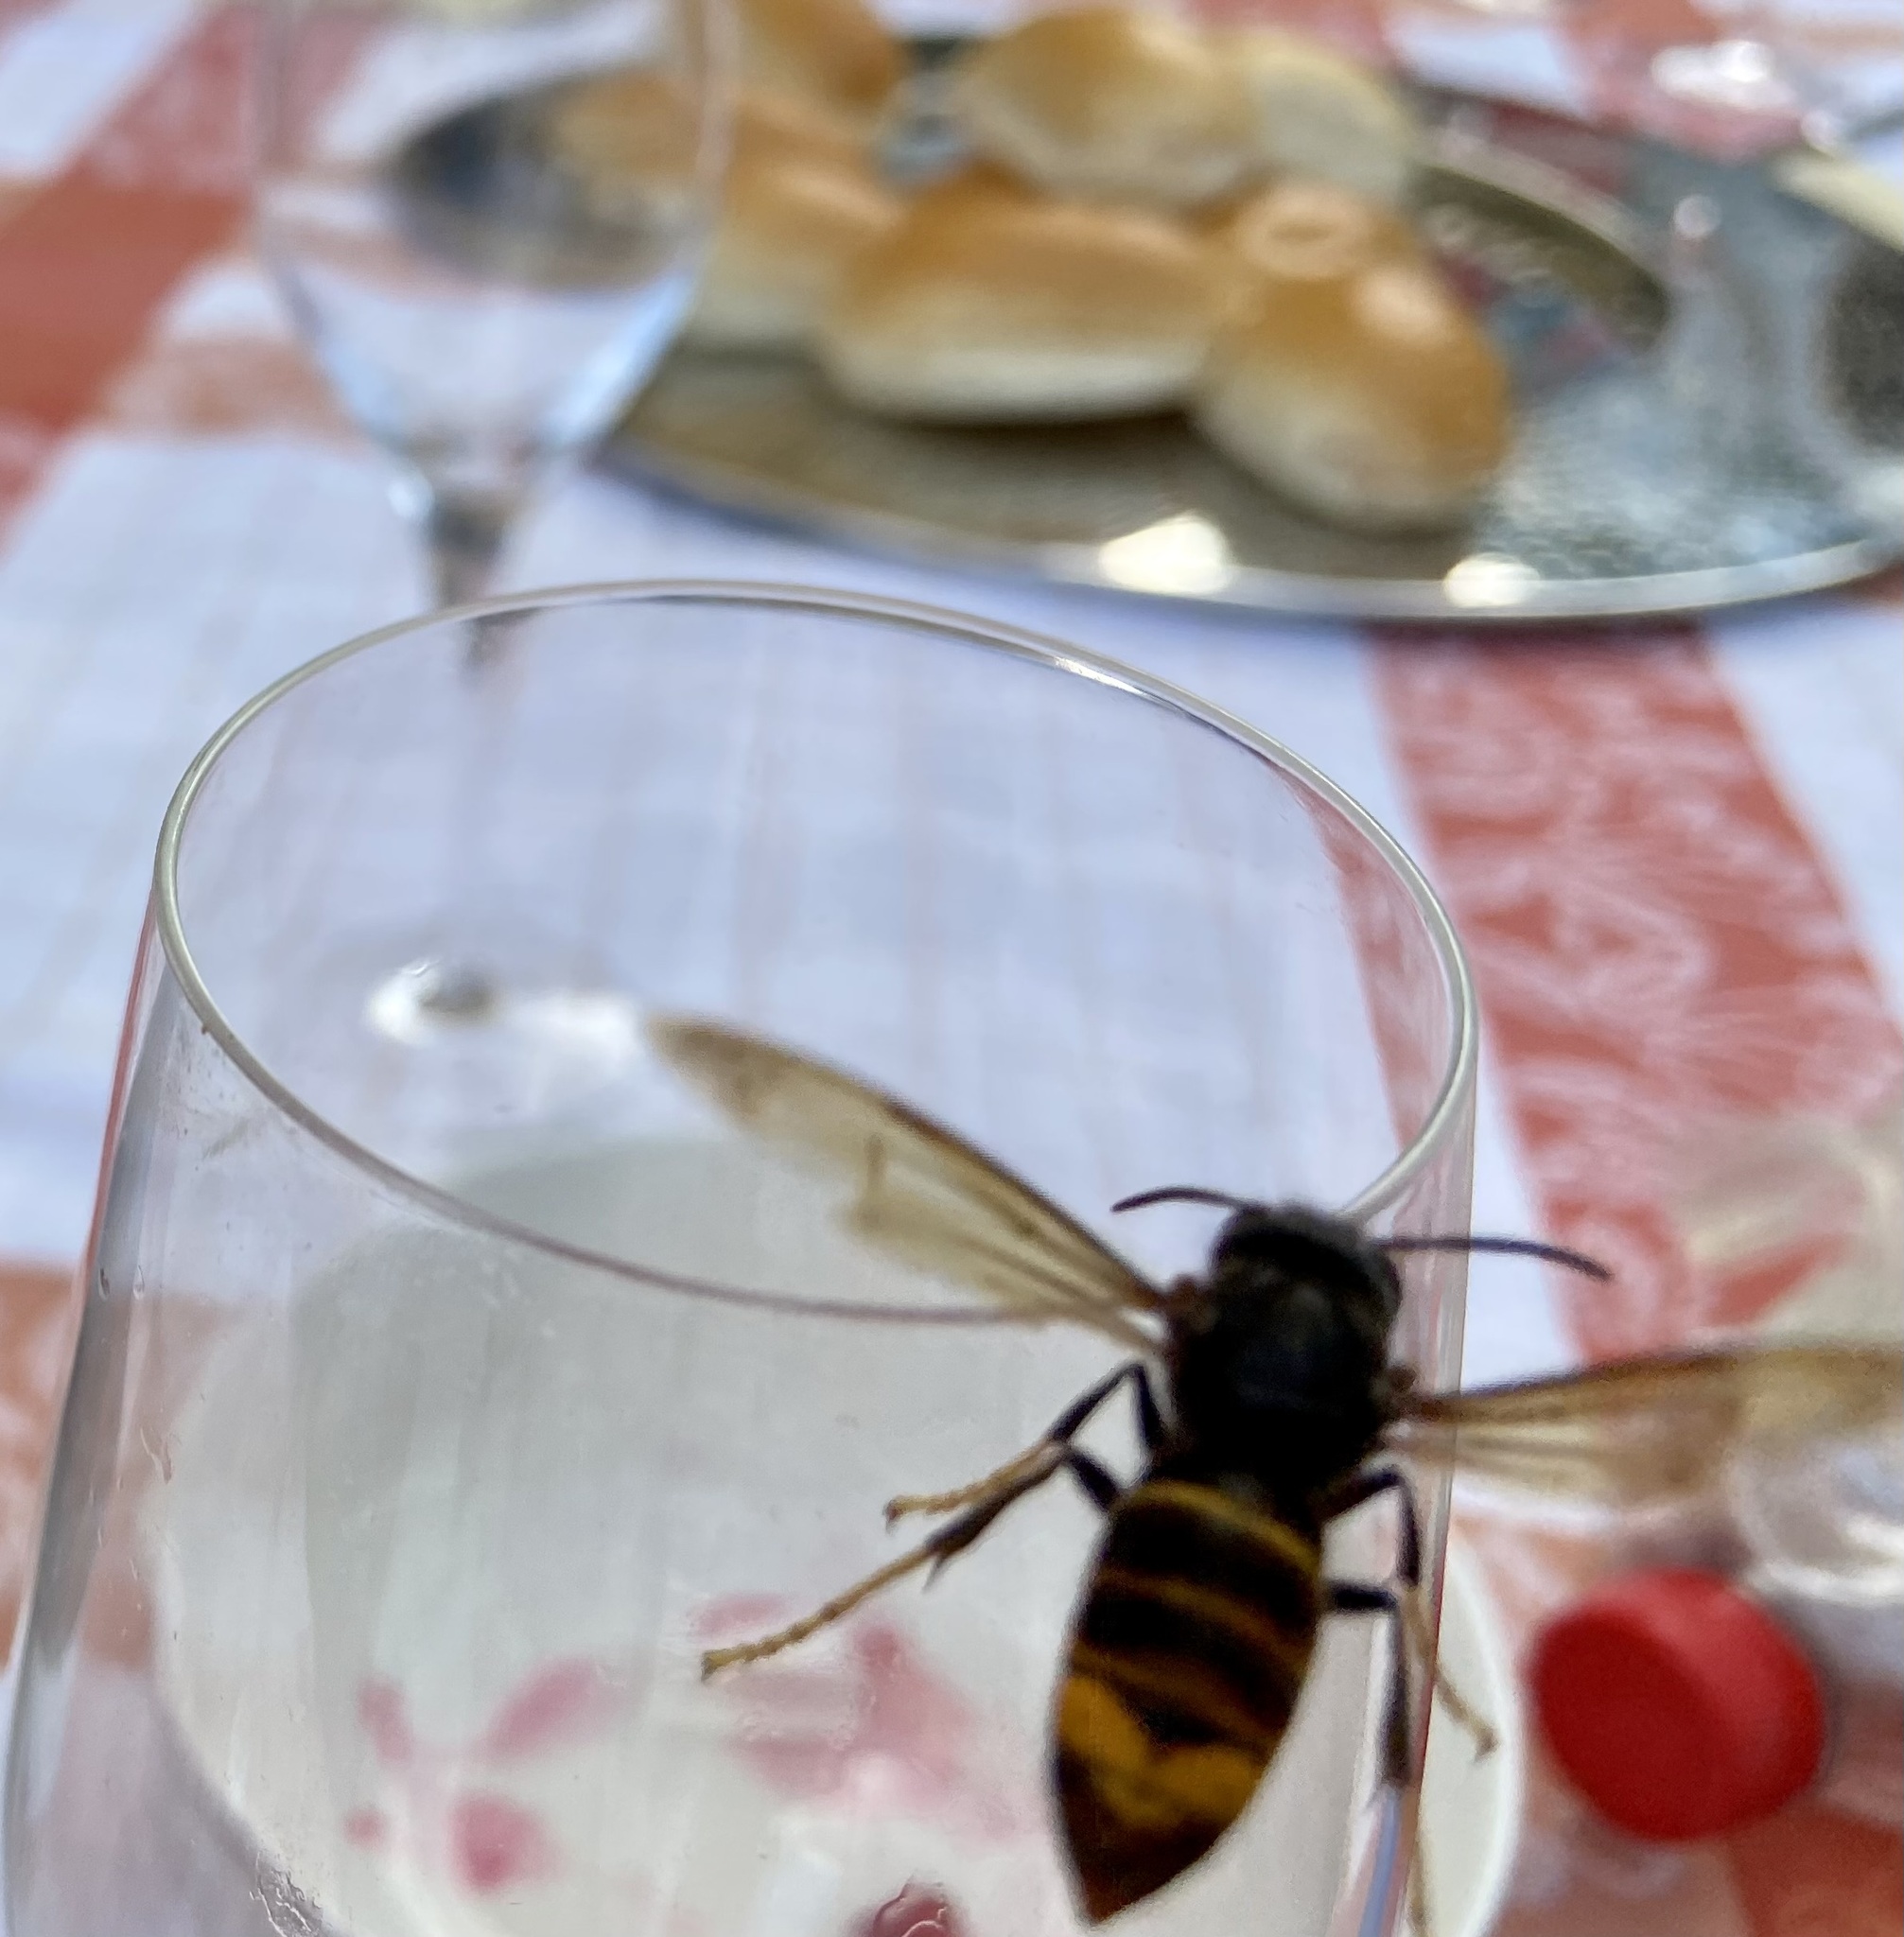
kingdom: Animalia
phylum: Arthropoda
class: Insecta
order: Hymenoptera
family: Vespidae
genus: Vespa
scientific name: Vespa velutina
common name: Asian hornet
